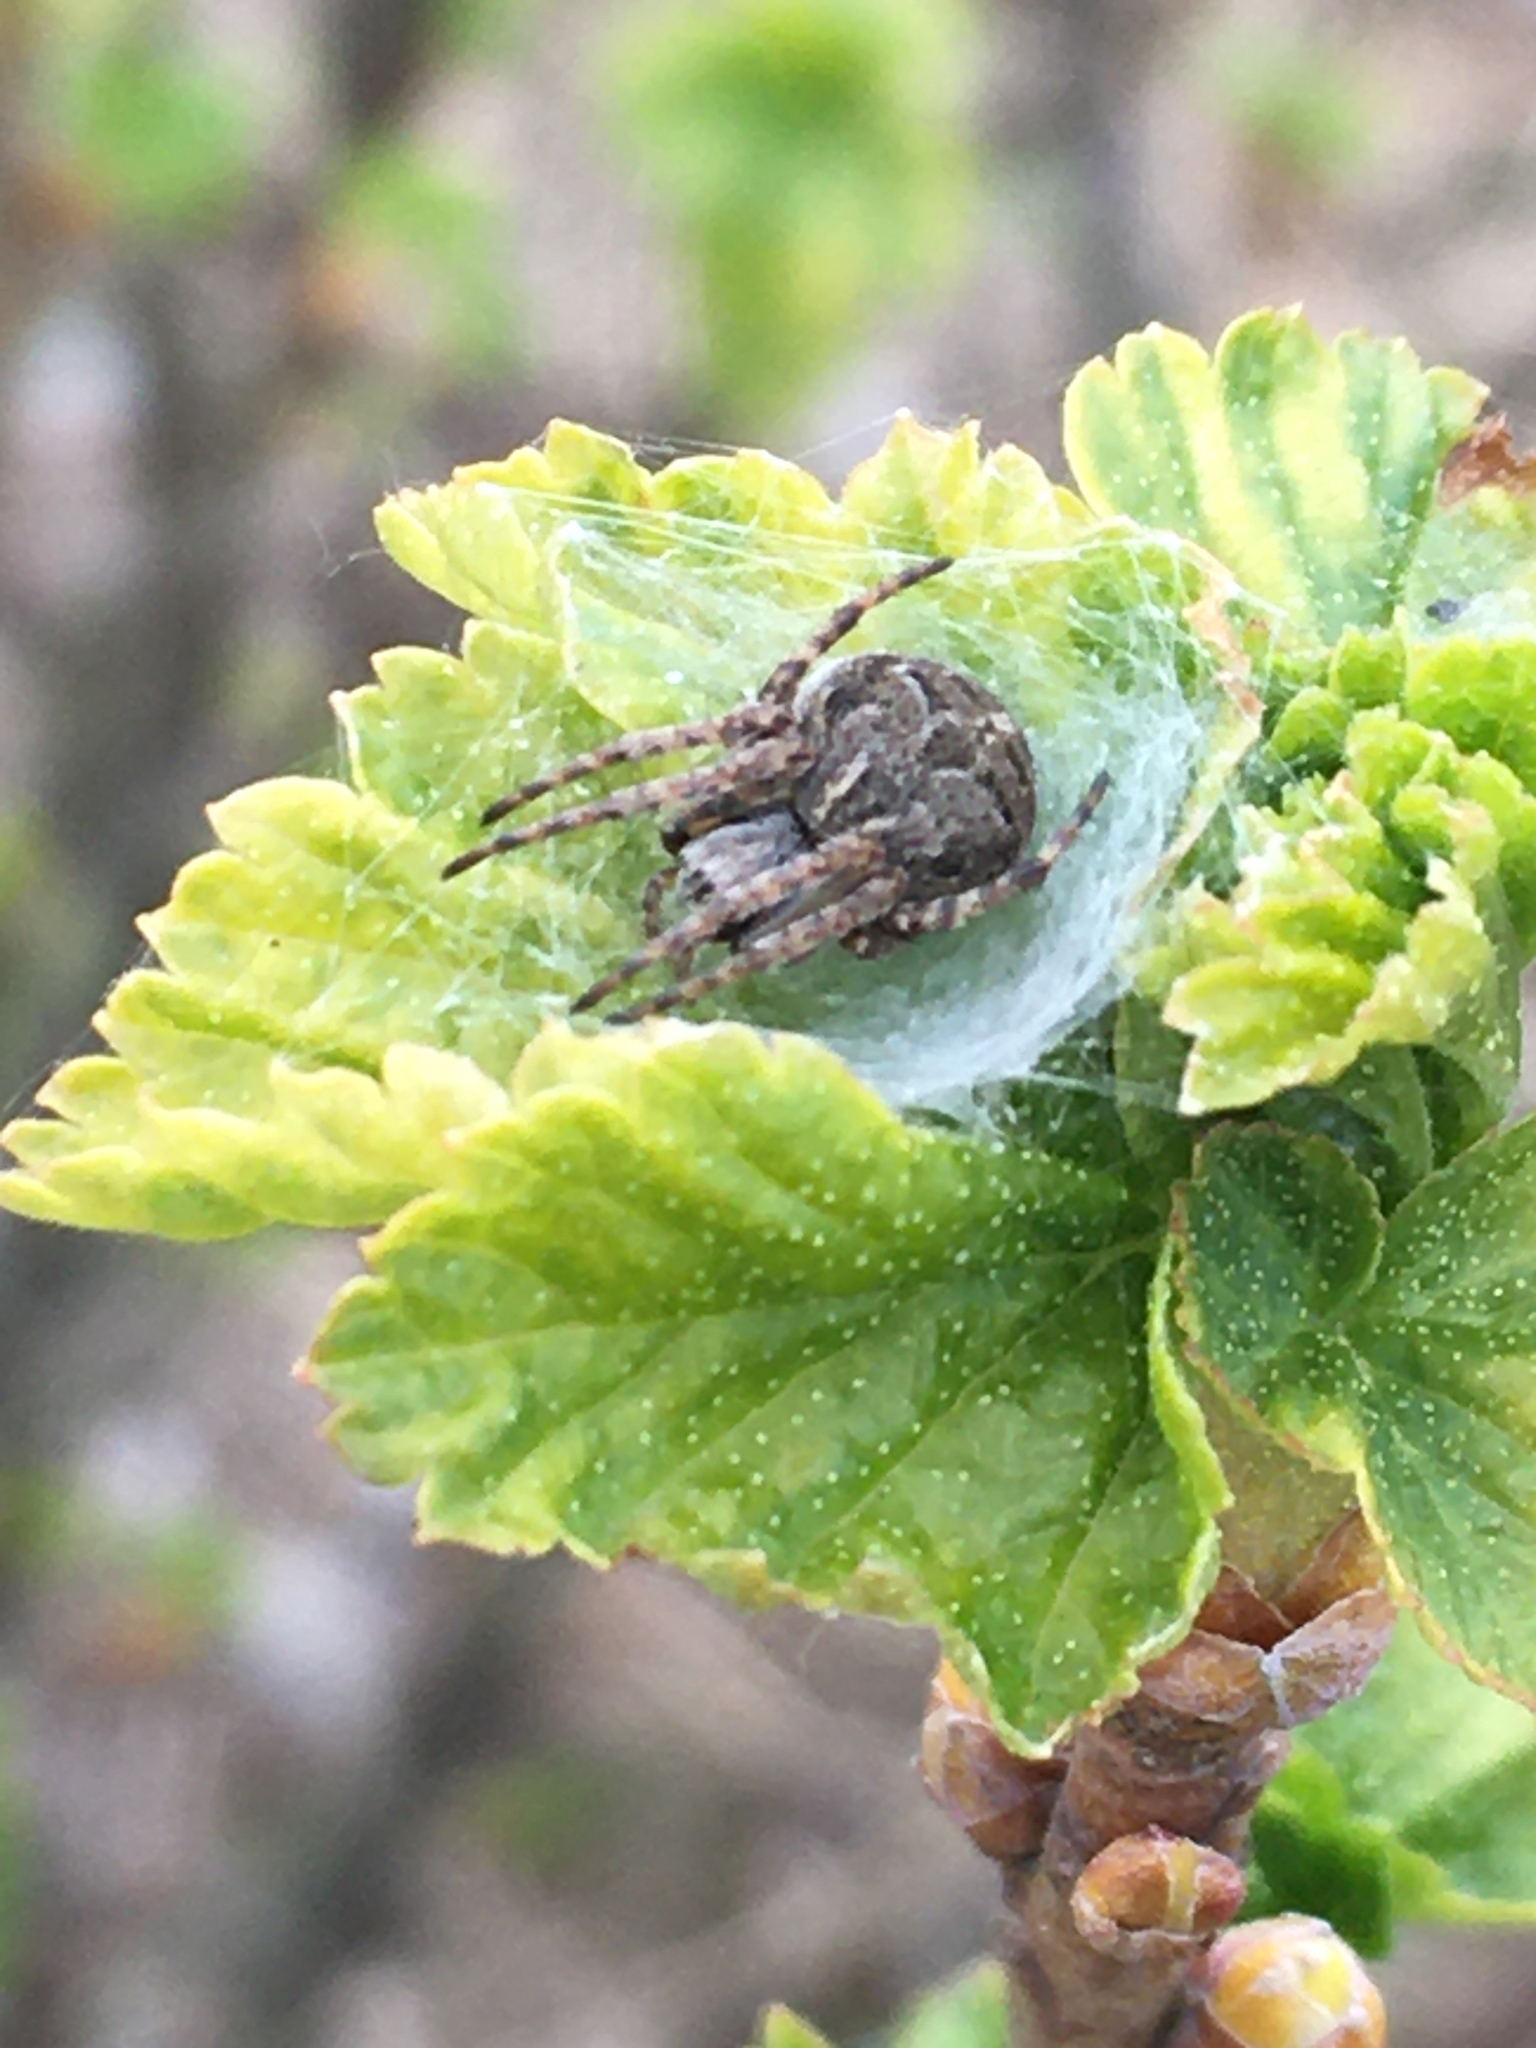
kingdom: Animalia
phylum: Arthropoda
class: Arachnida
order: Araneae
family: Araneidae
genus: Agalenatea
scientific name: Agalenatea redii
